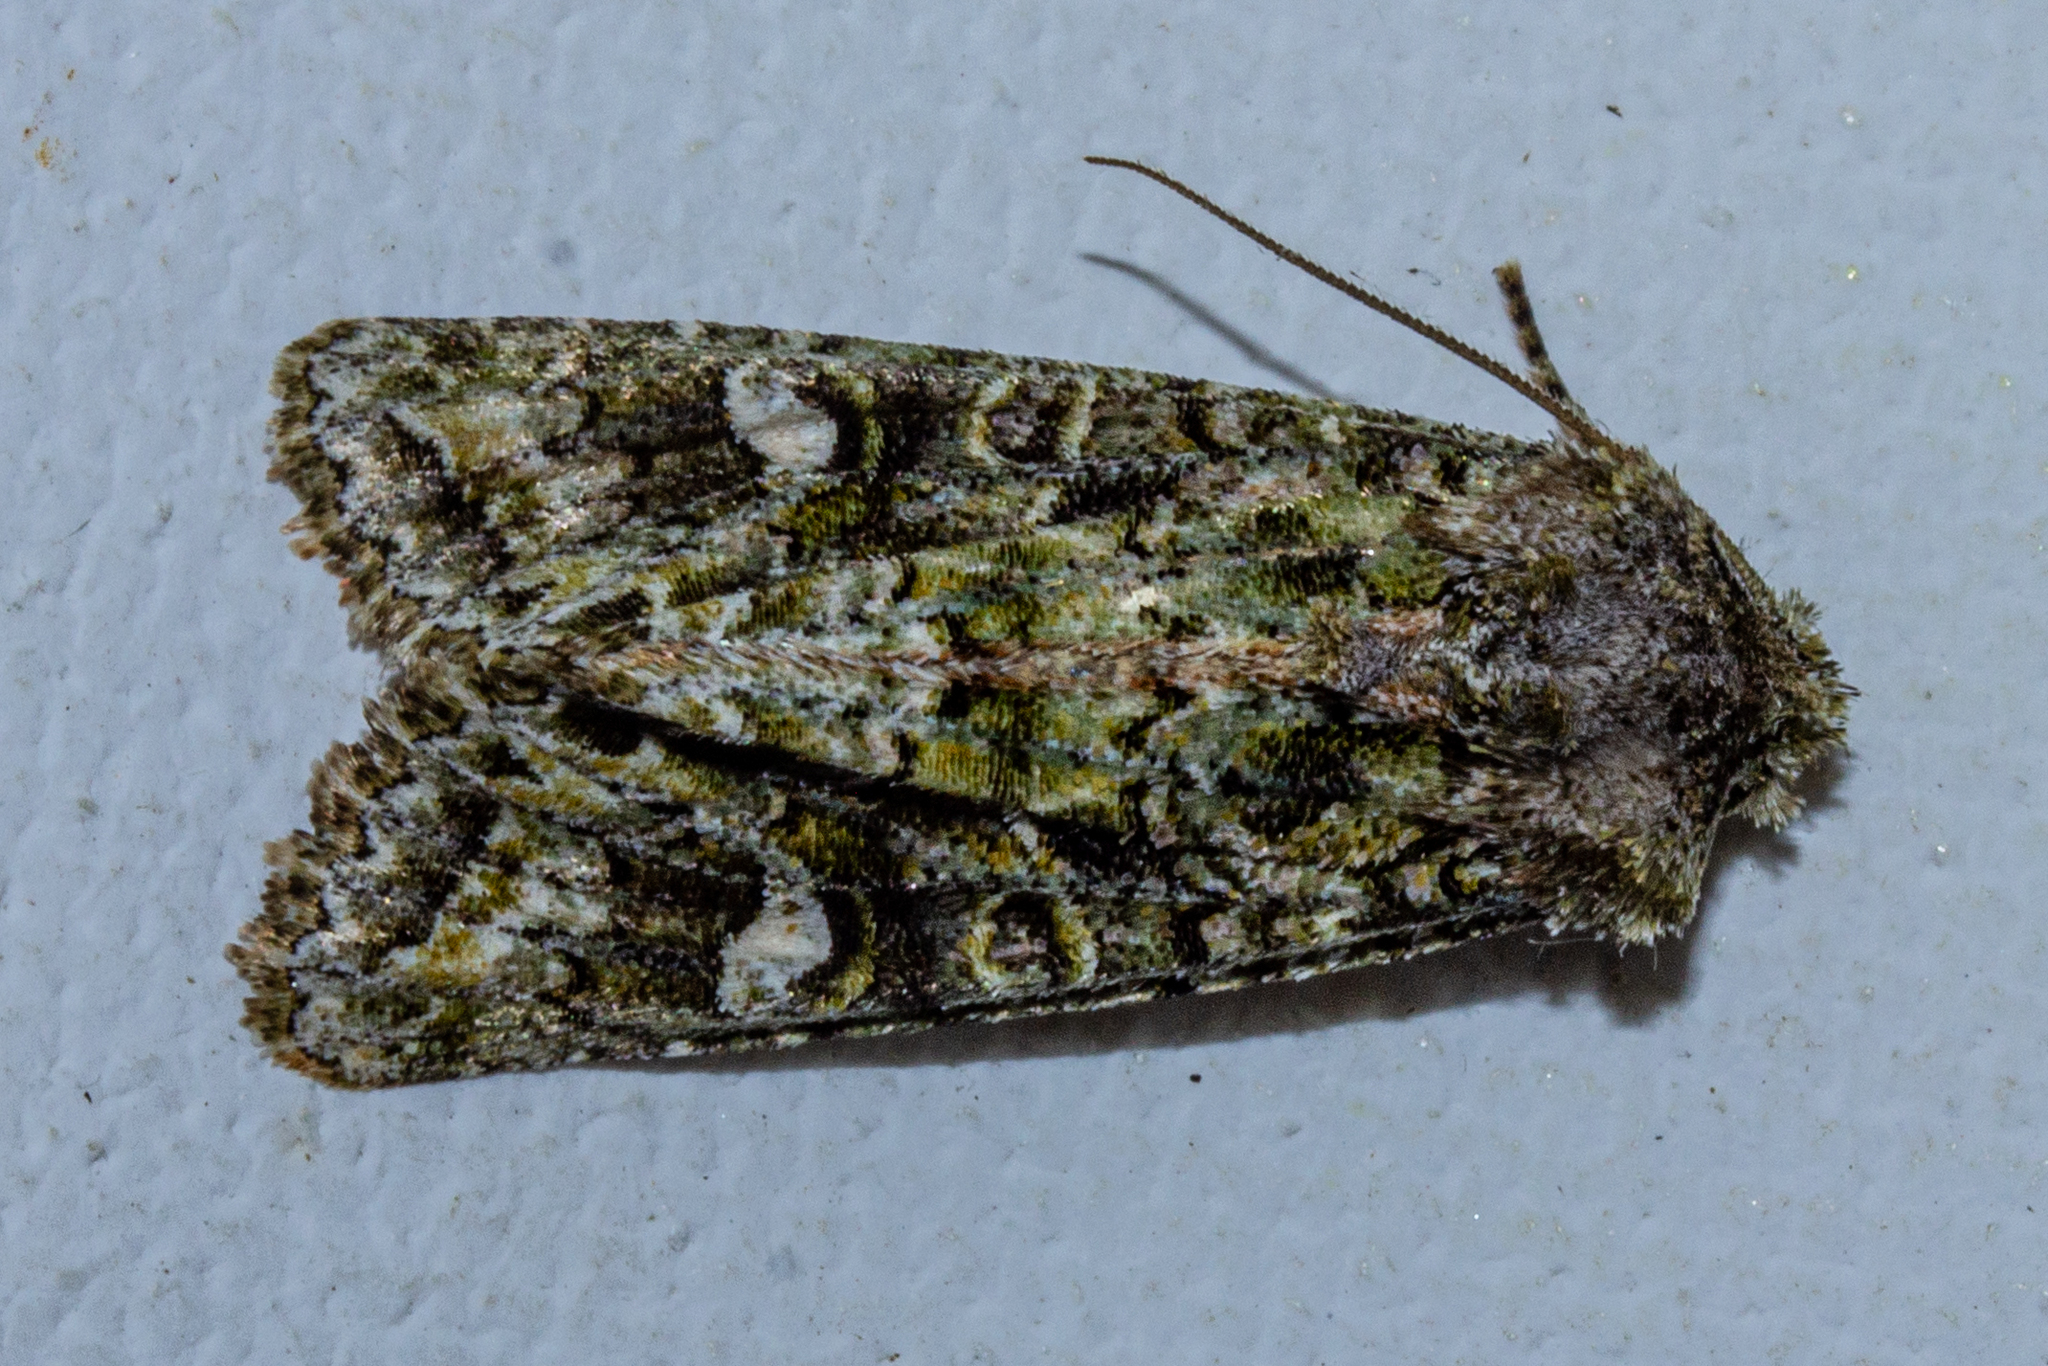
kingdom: Animalia
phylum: Arthropoda
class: Insecta
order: Lepidoptera
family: Noctuidae
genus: Ichneutica
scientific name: Ichneutica
